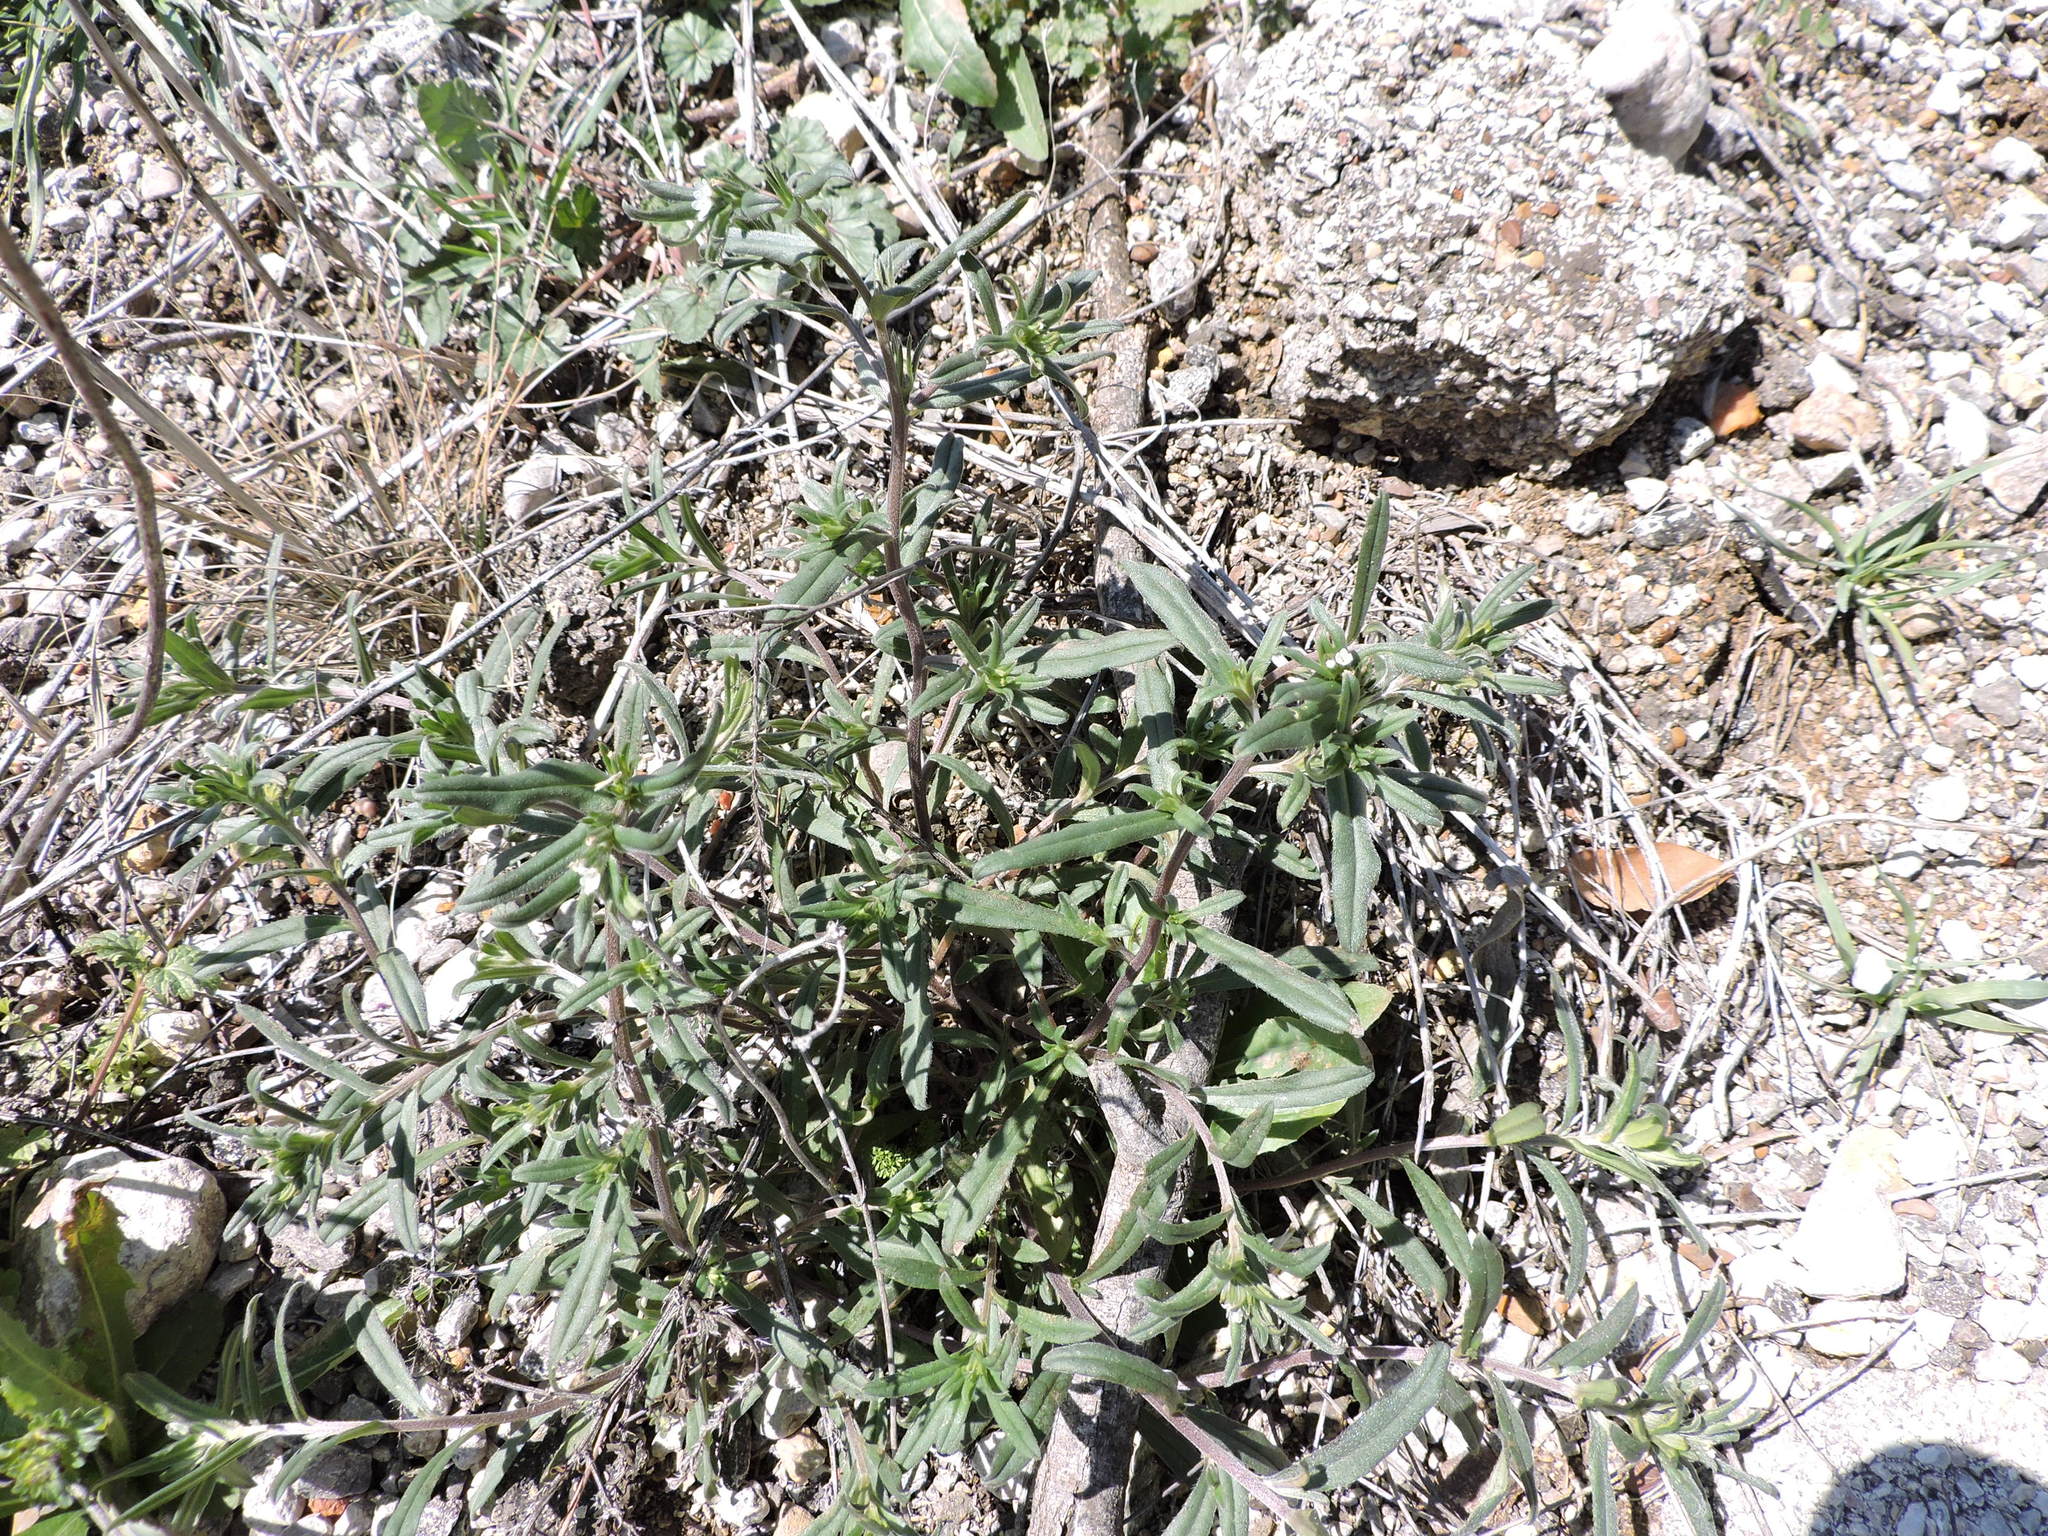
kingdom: Plantae
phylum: Tracheophyta
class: Magnoliopsida
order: Boraginales
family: Boraginaceae
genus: Buglossoides
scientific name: Buglossoides arvensis
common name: Corn gromwell
